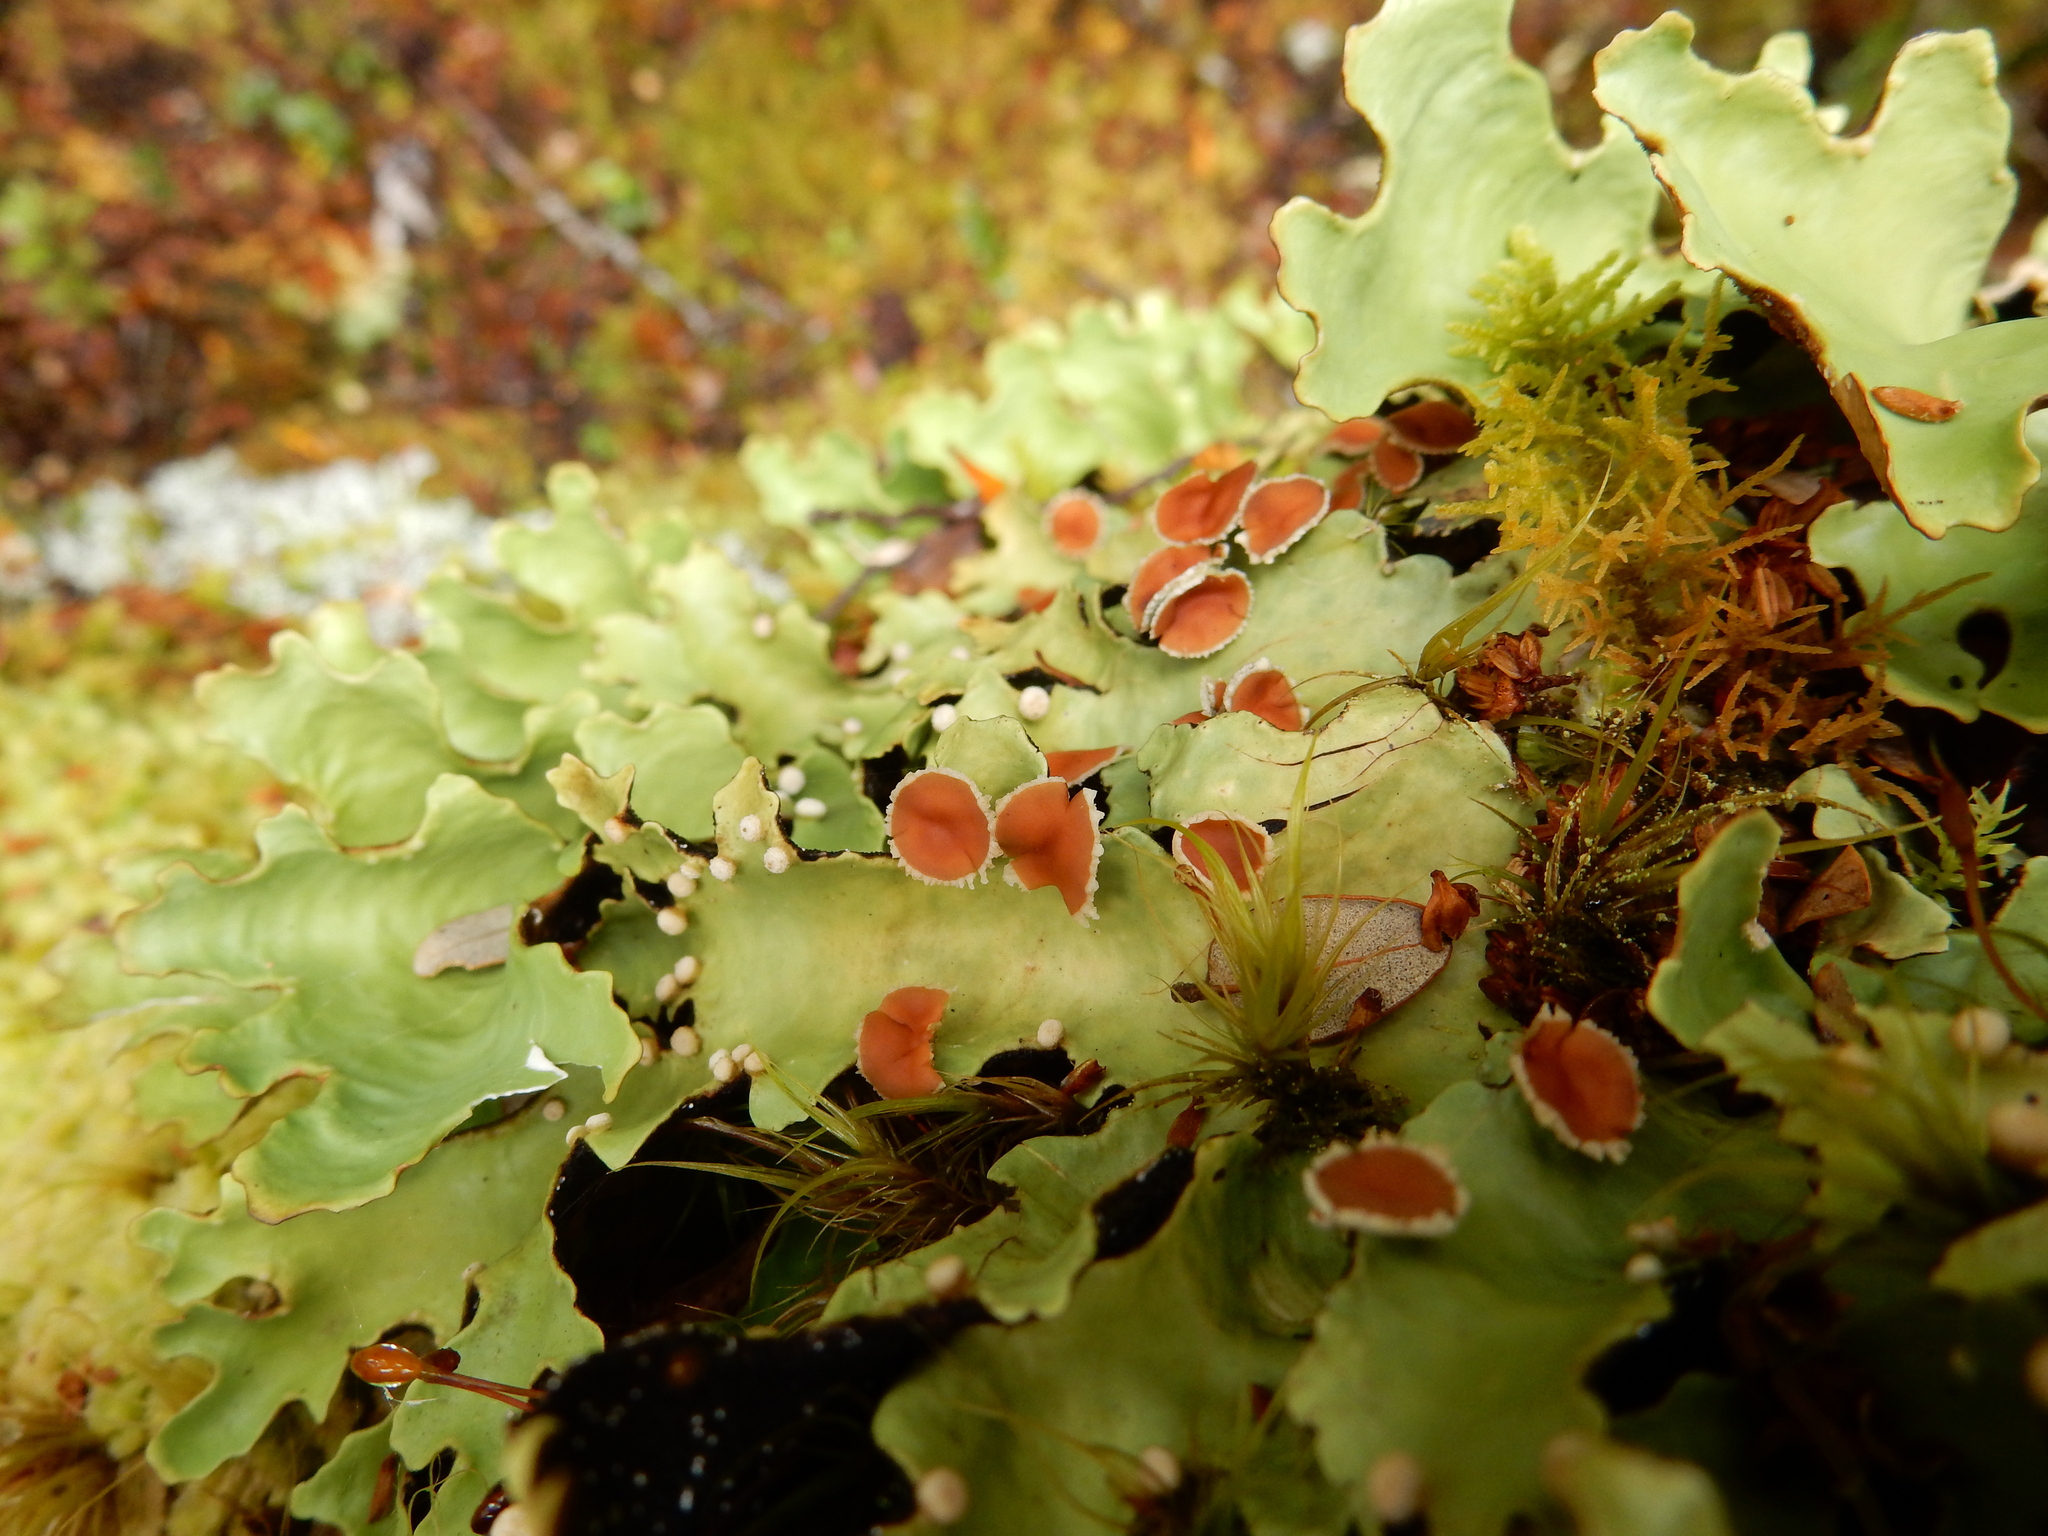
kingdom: Fungi
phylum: Ascomycota
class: Lecanoromycetes
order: Peltigerales
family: Lobariaceae
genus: Pseudocyphellaria
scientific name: Pseudocyphellaria homeophylla
